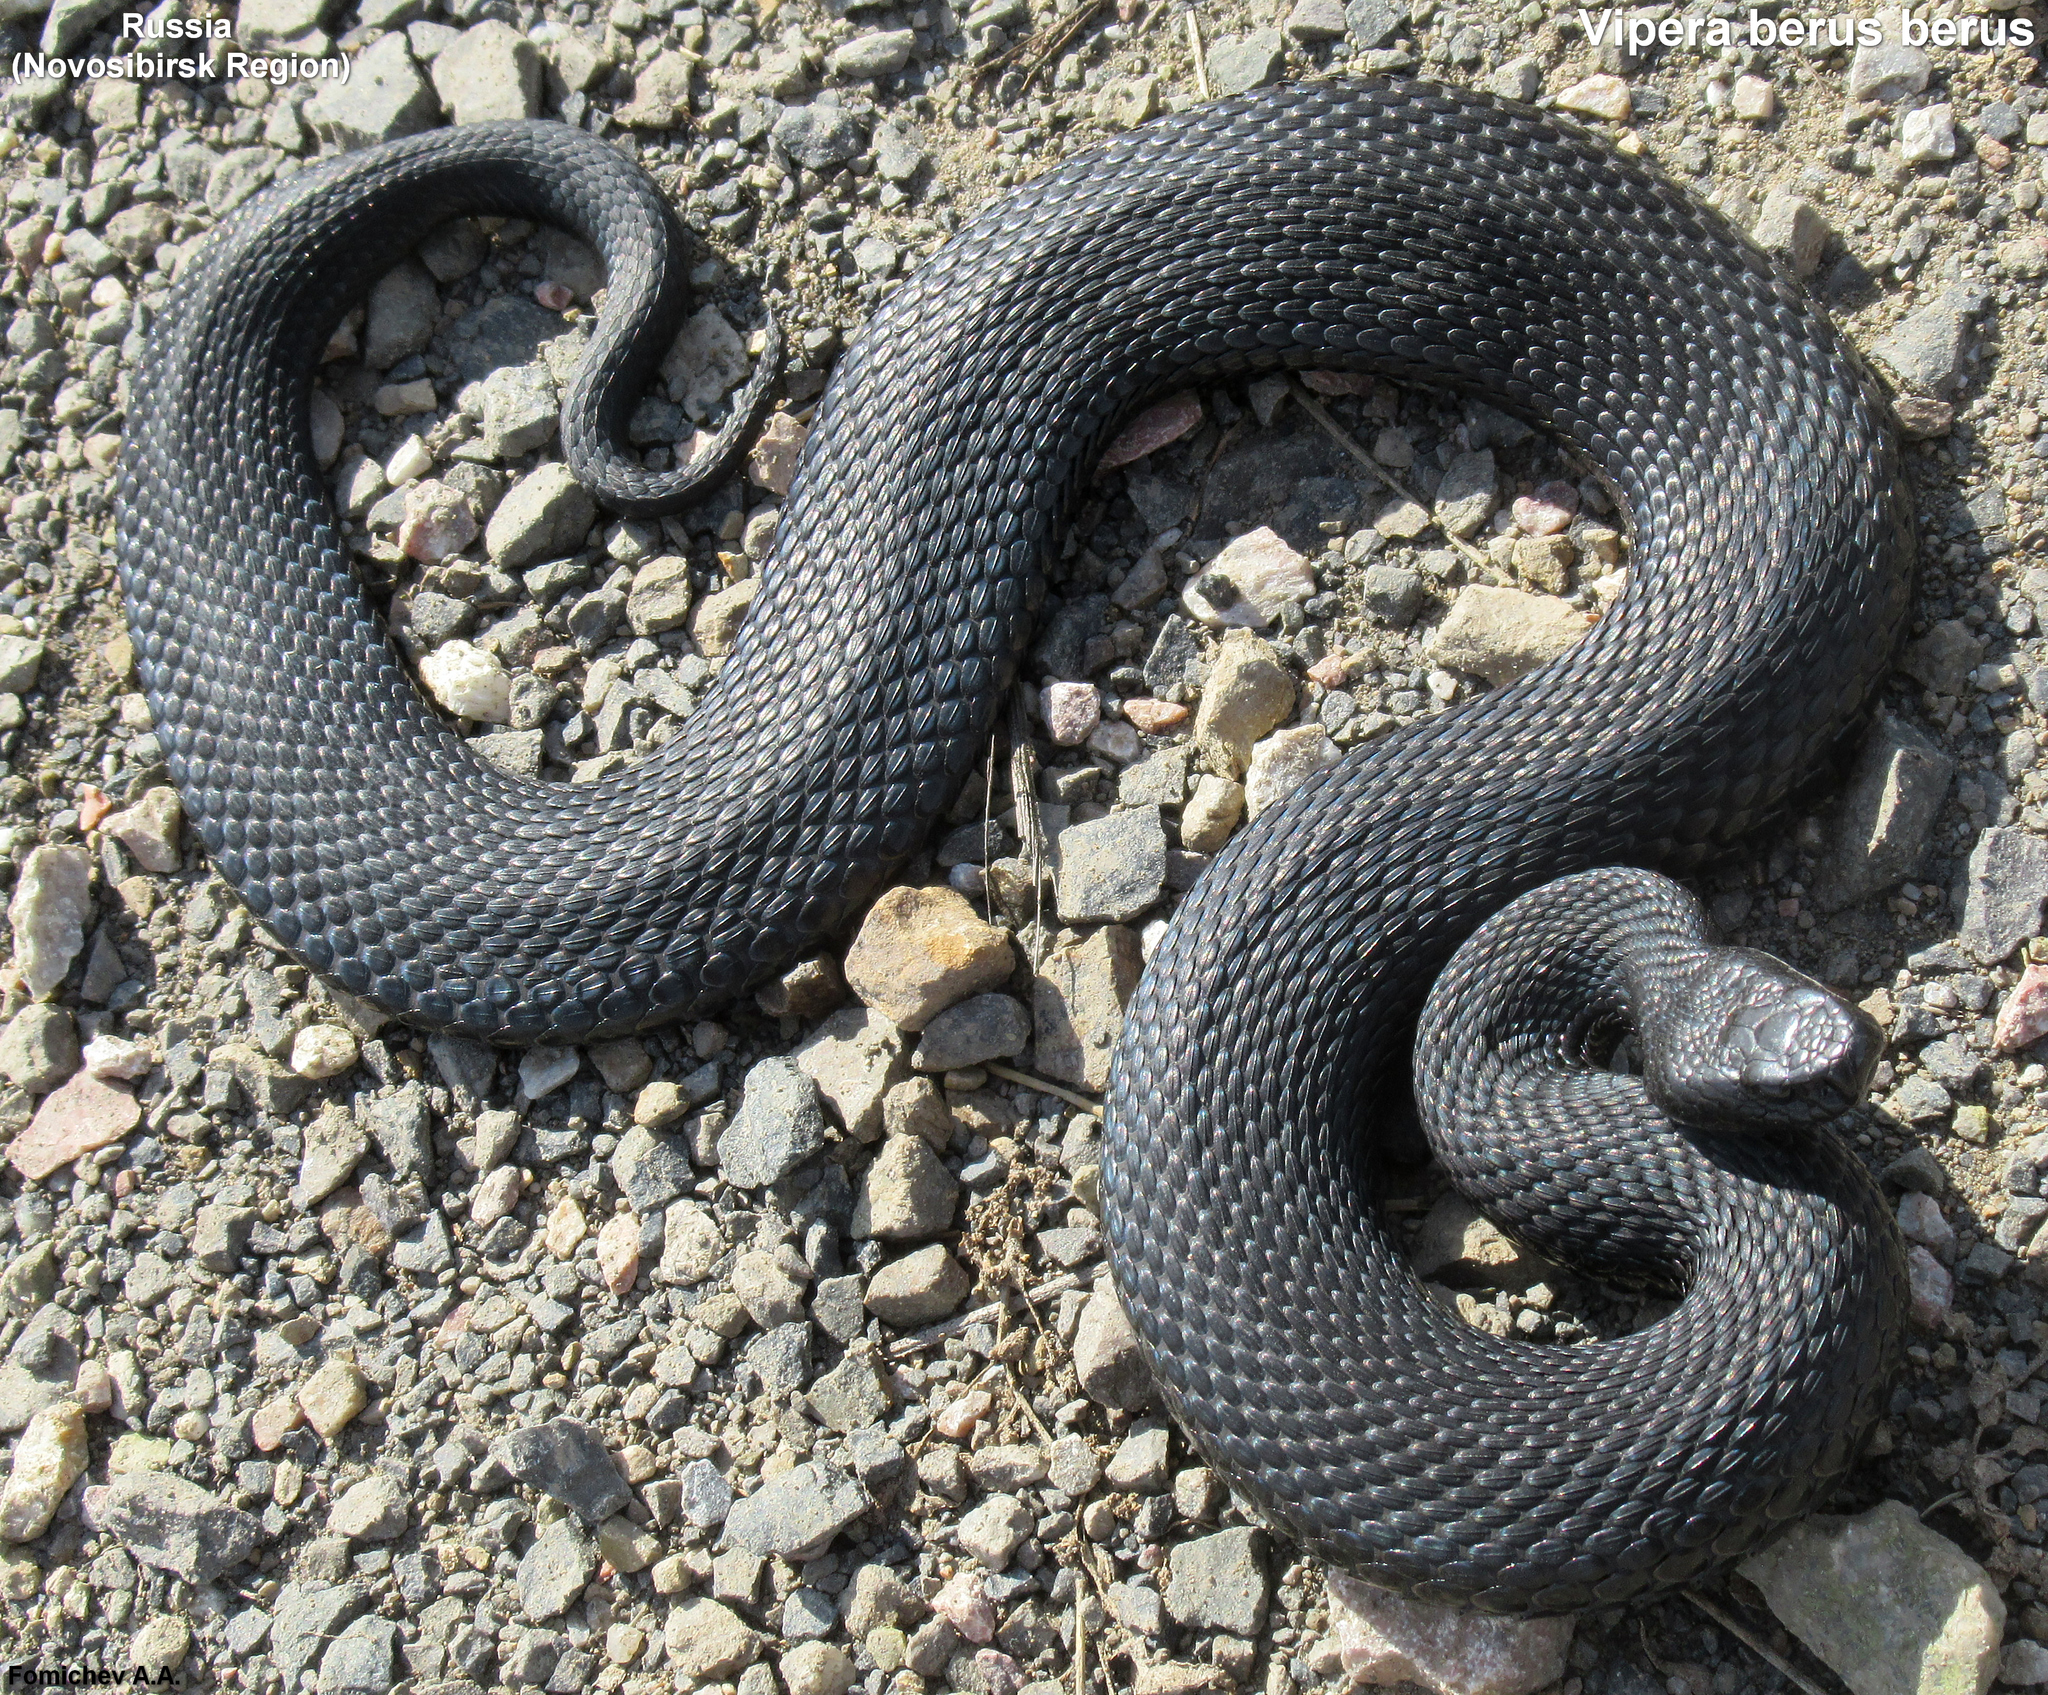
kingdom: Animalia
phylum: Chordata
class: Squamata
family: Viperidae
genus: Vipera
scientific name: Vipera berus
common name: Adder
